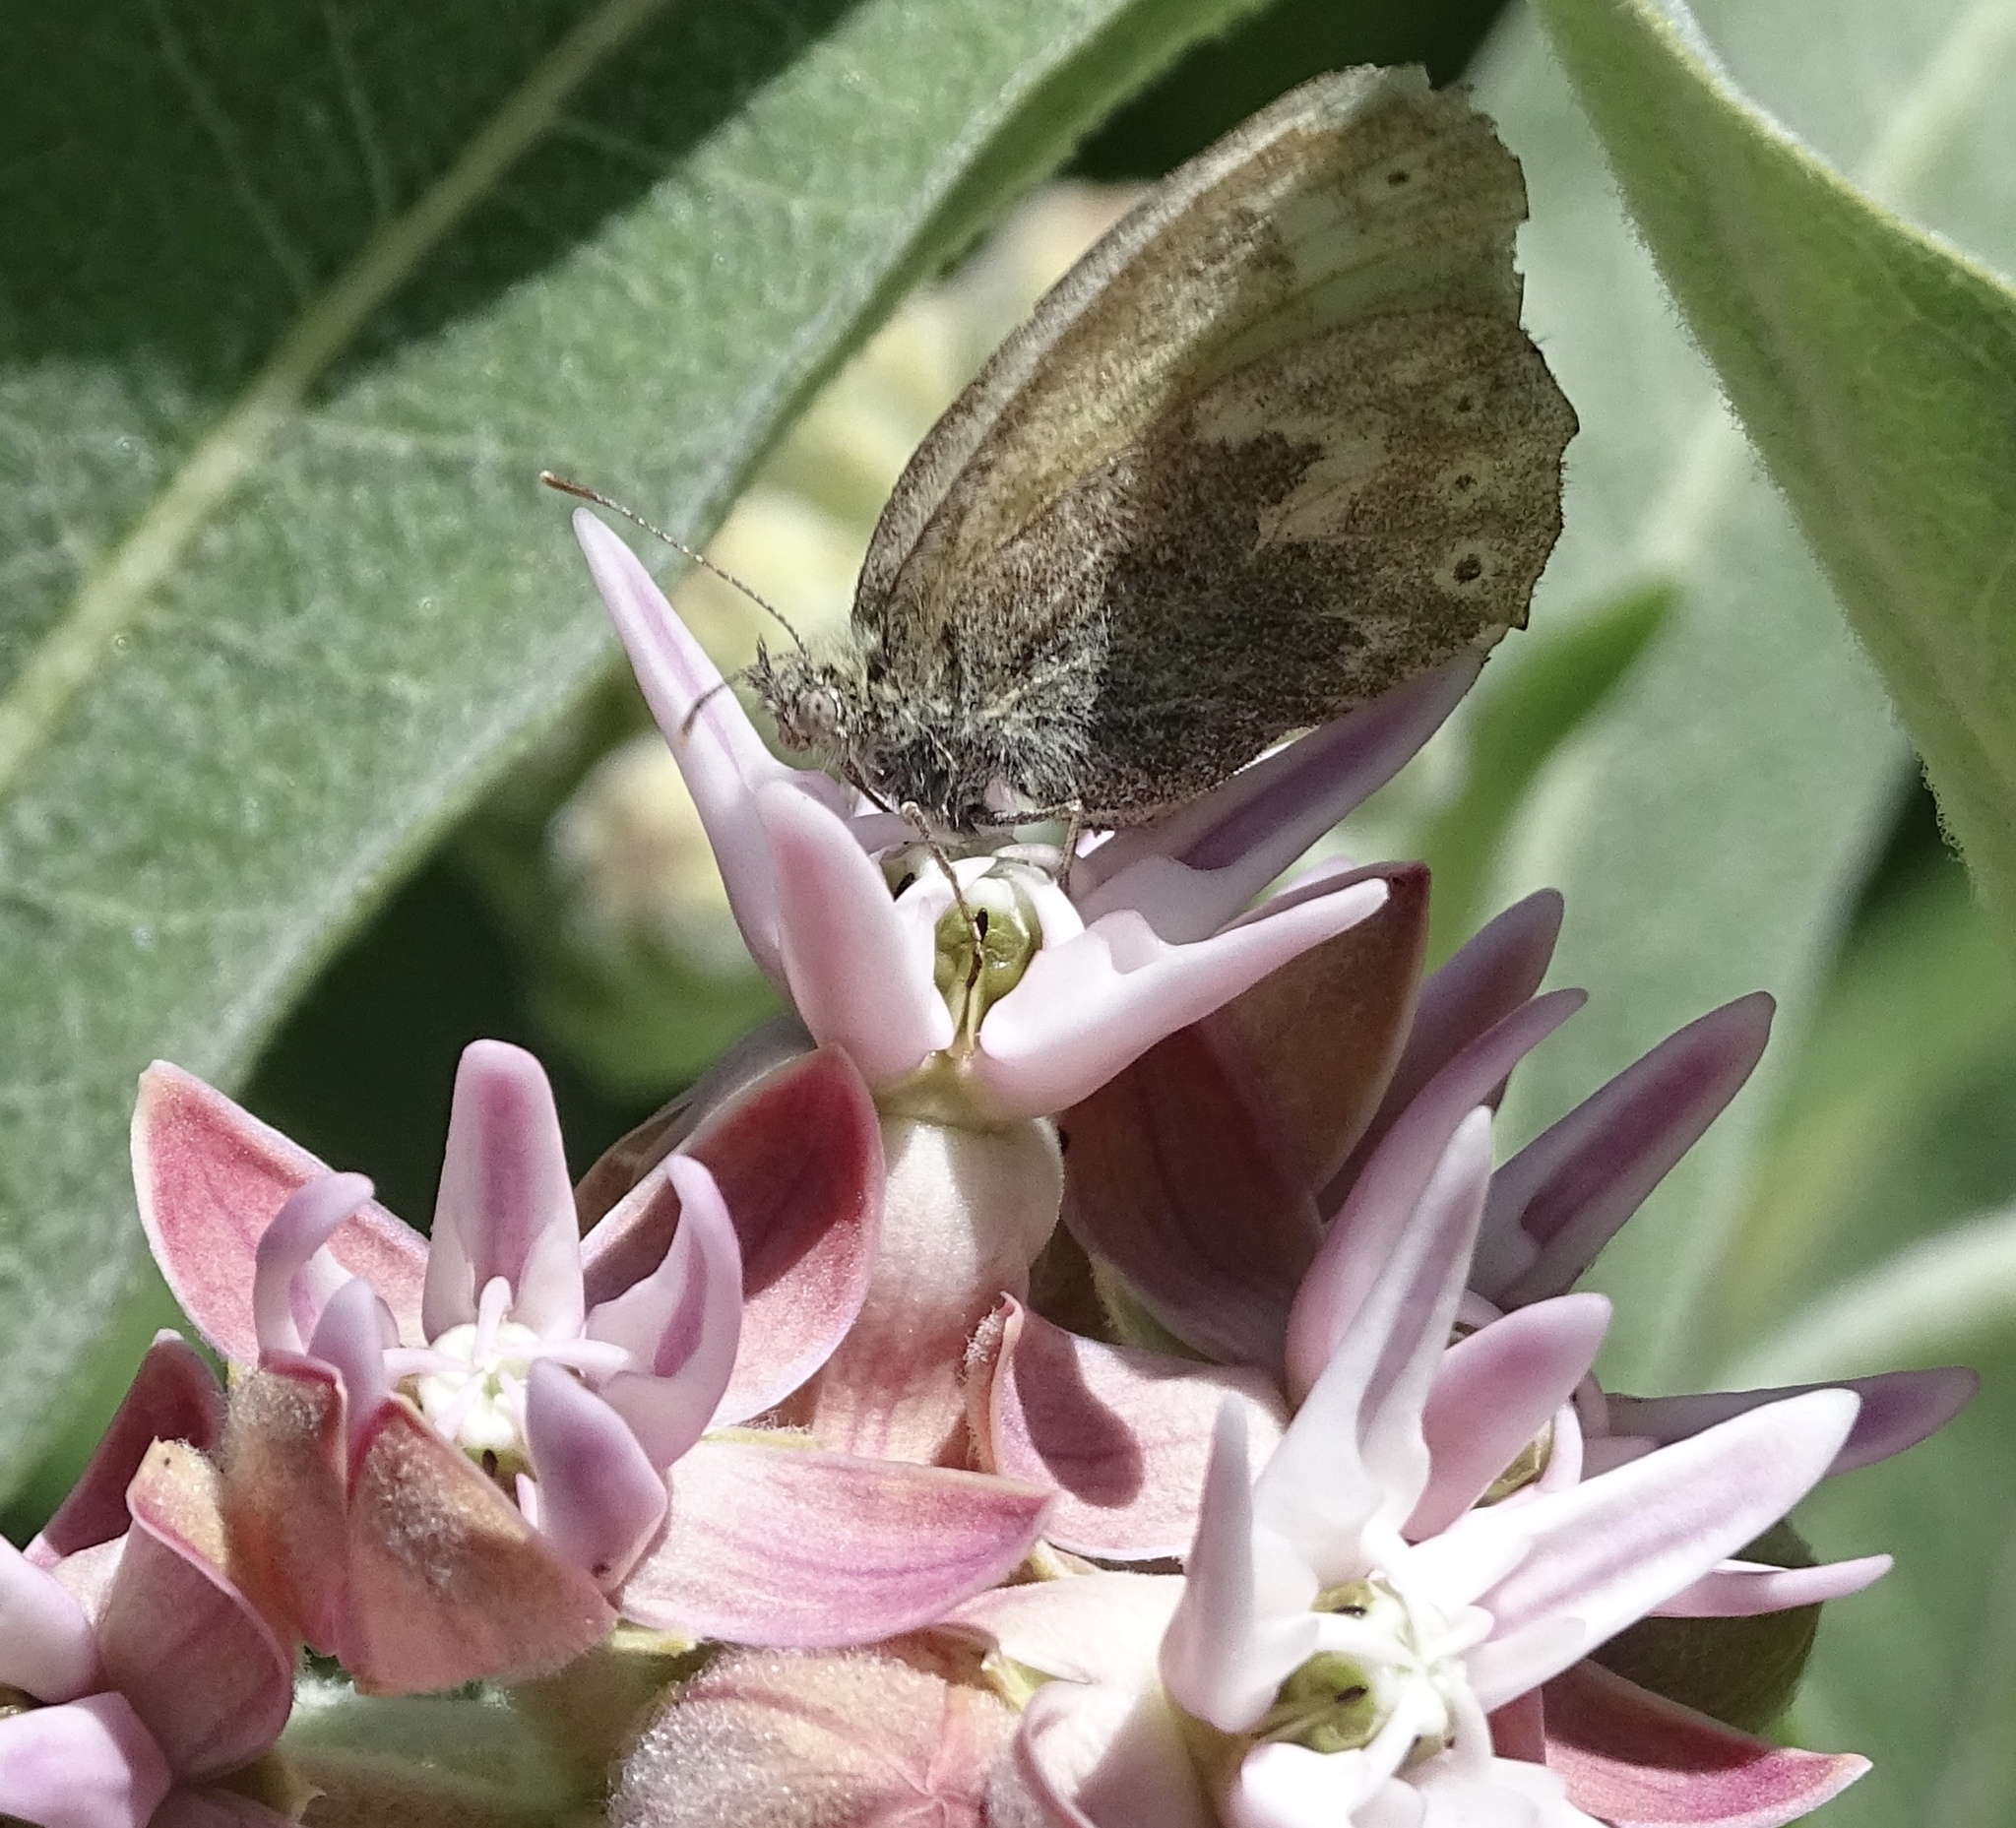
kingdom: Animalia
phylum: Arthropoda
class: Insecta
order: Lepidoptera
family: Nymphalidae
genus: Coenonympha
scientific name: Coenonympha california
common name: Common ringlet
